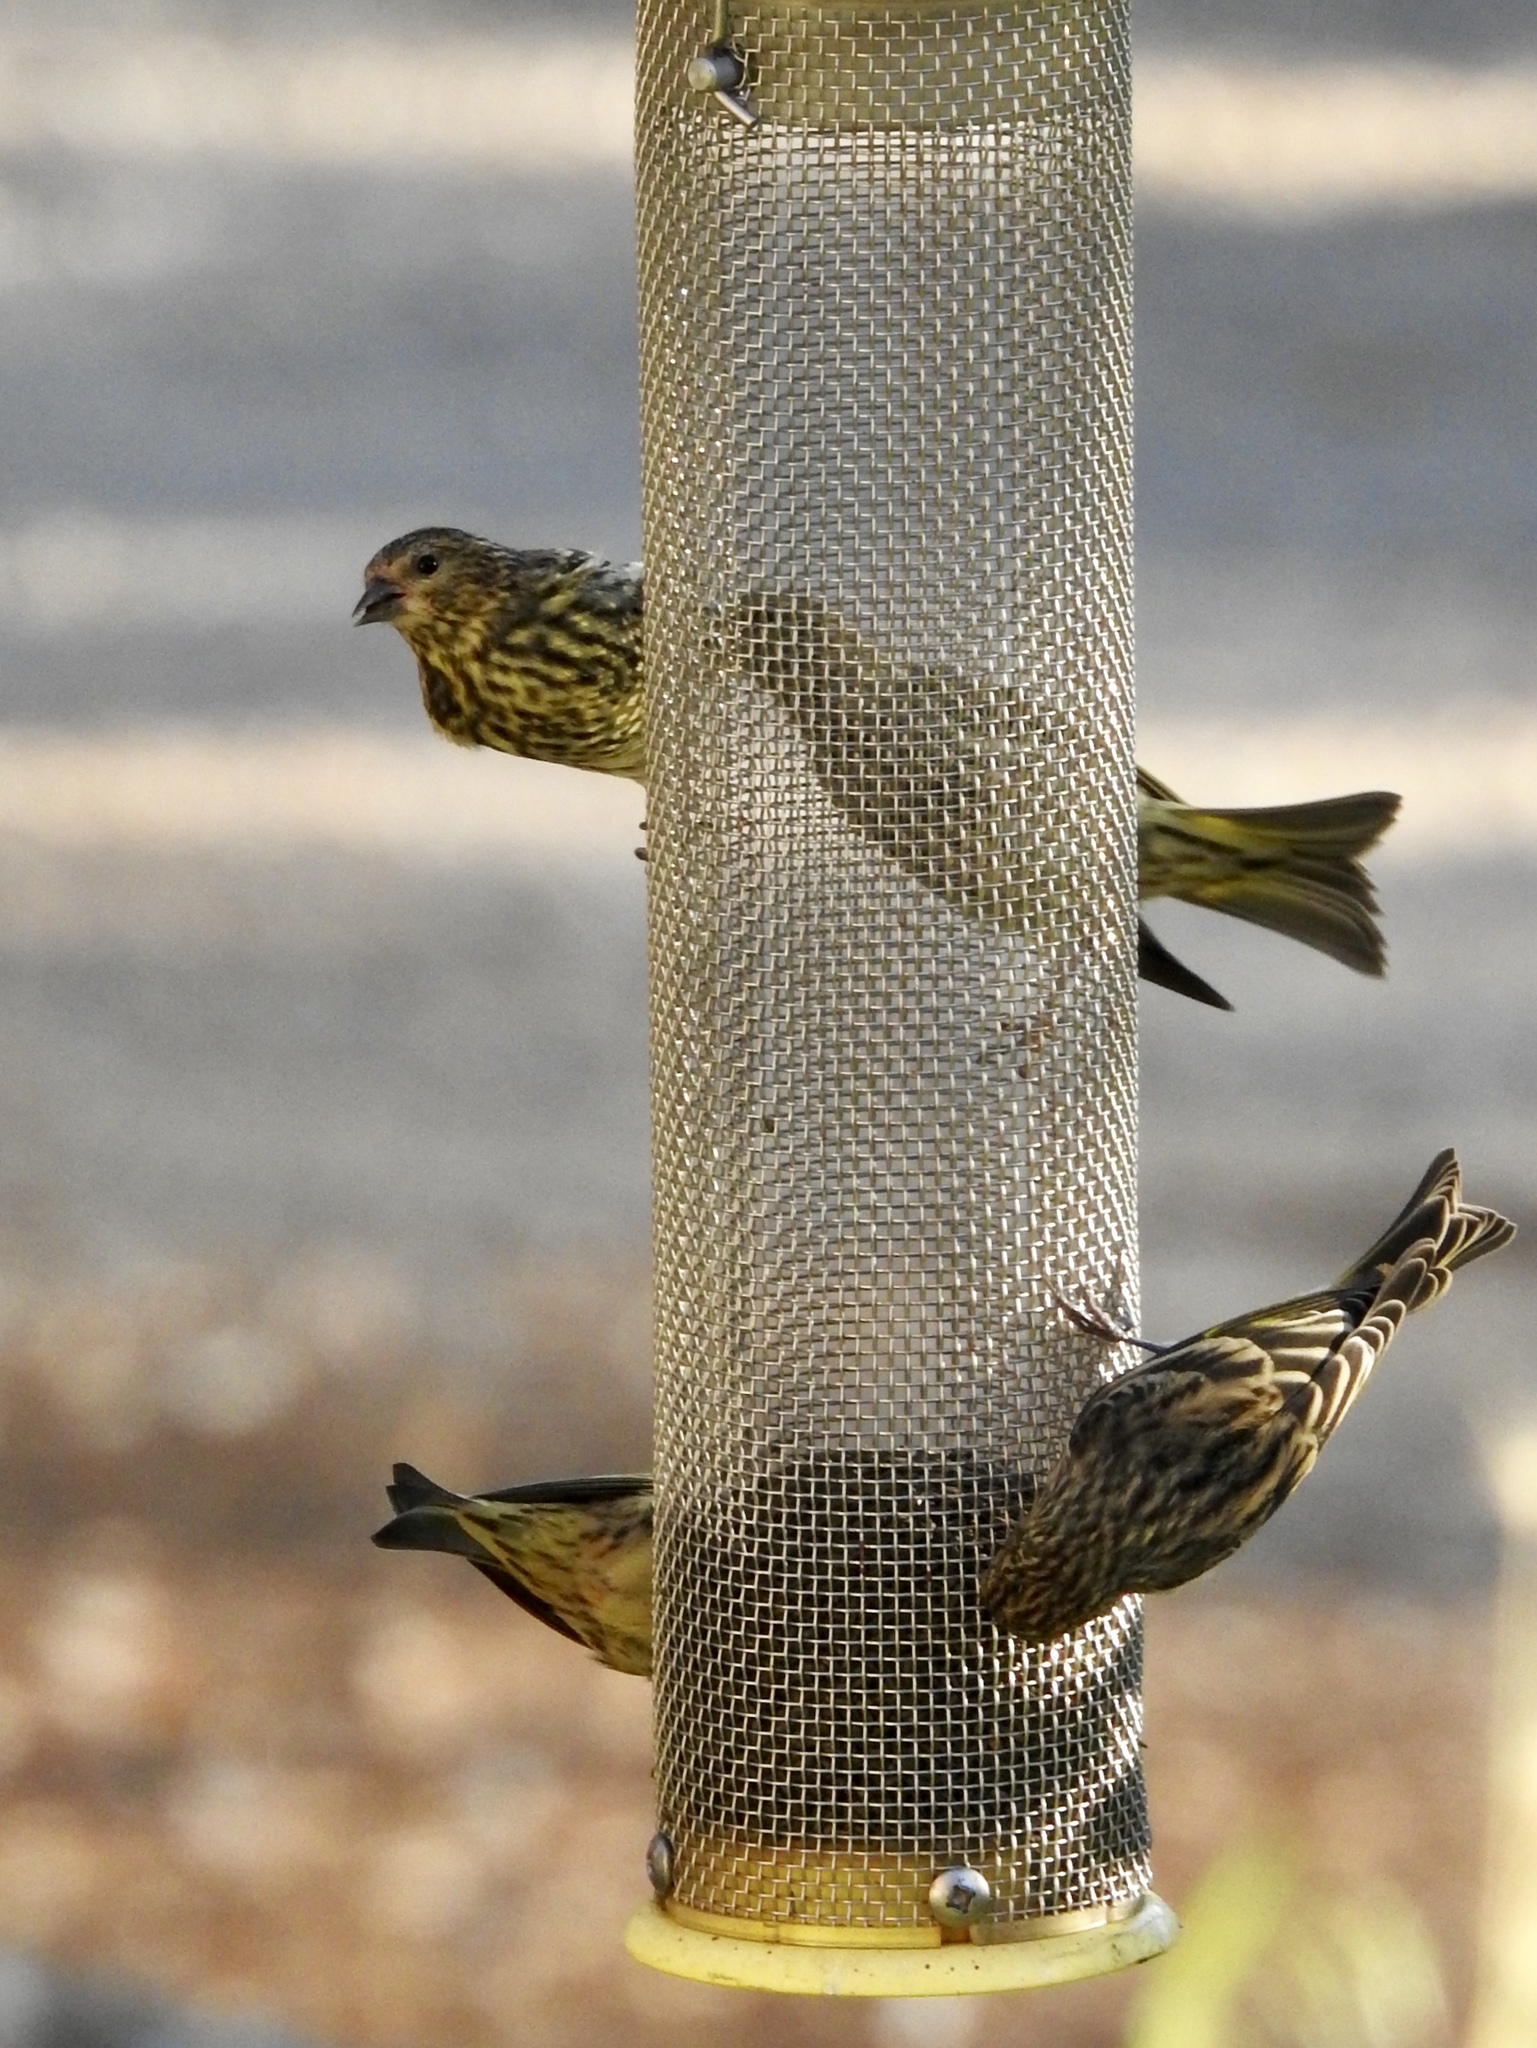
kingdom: Animalia
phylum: Chordata
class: Aves
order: Passeriformes
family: Fringillidae
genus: Spinus
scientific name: Spinus pinus
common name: Pine siskin
